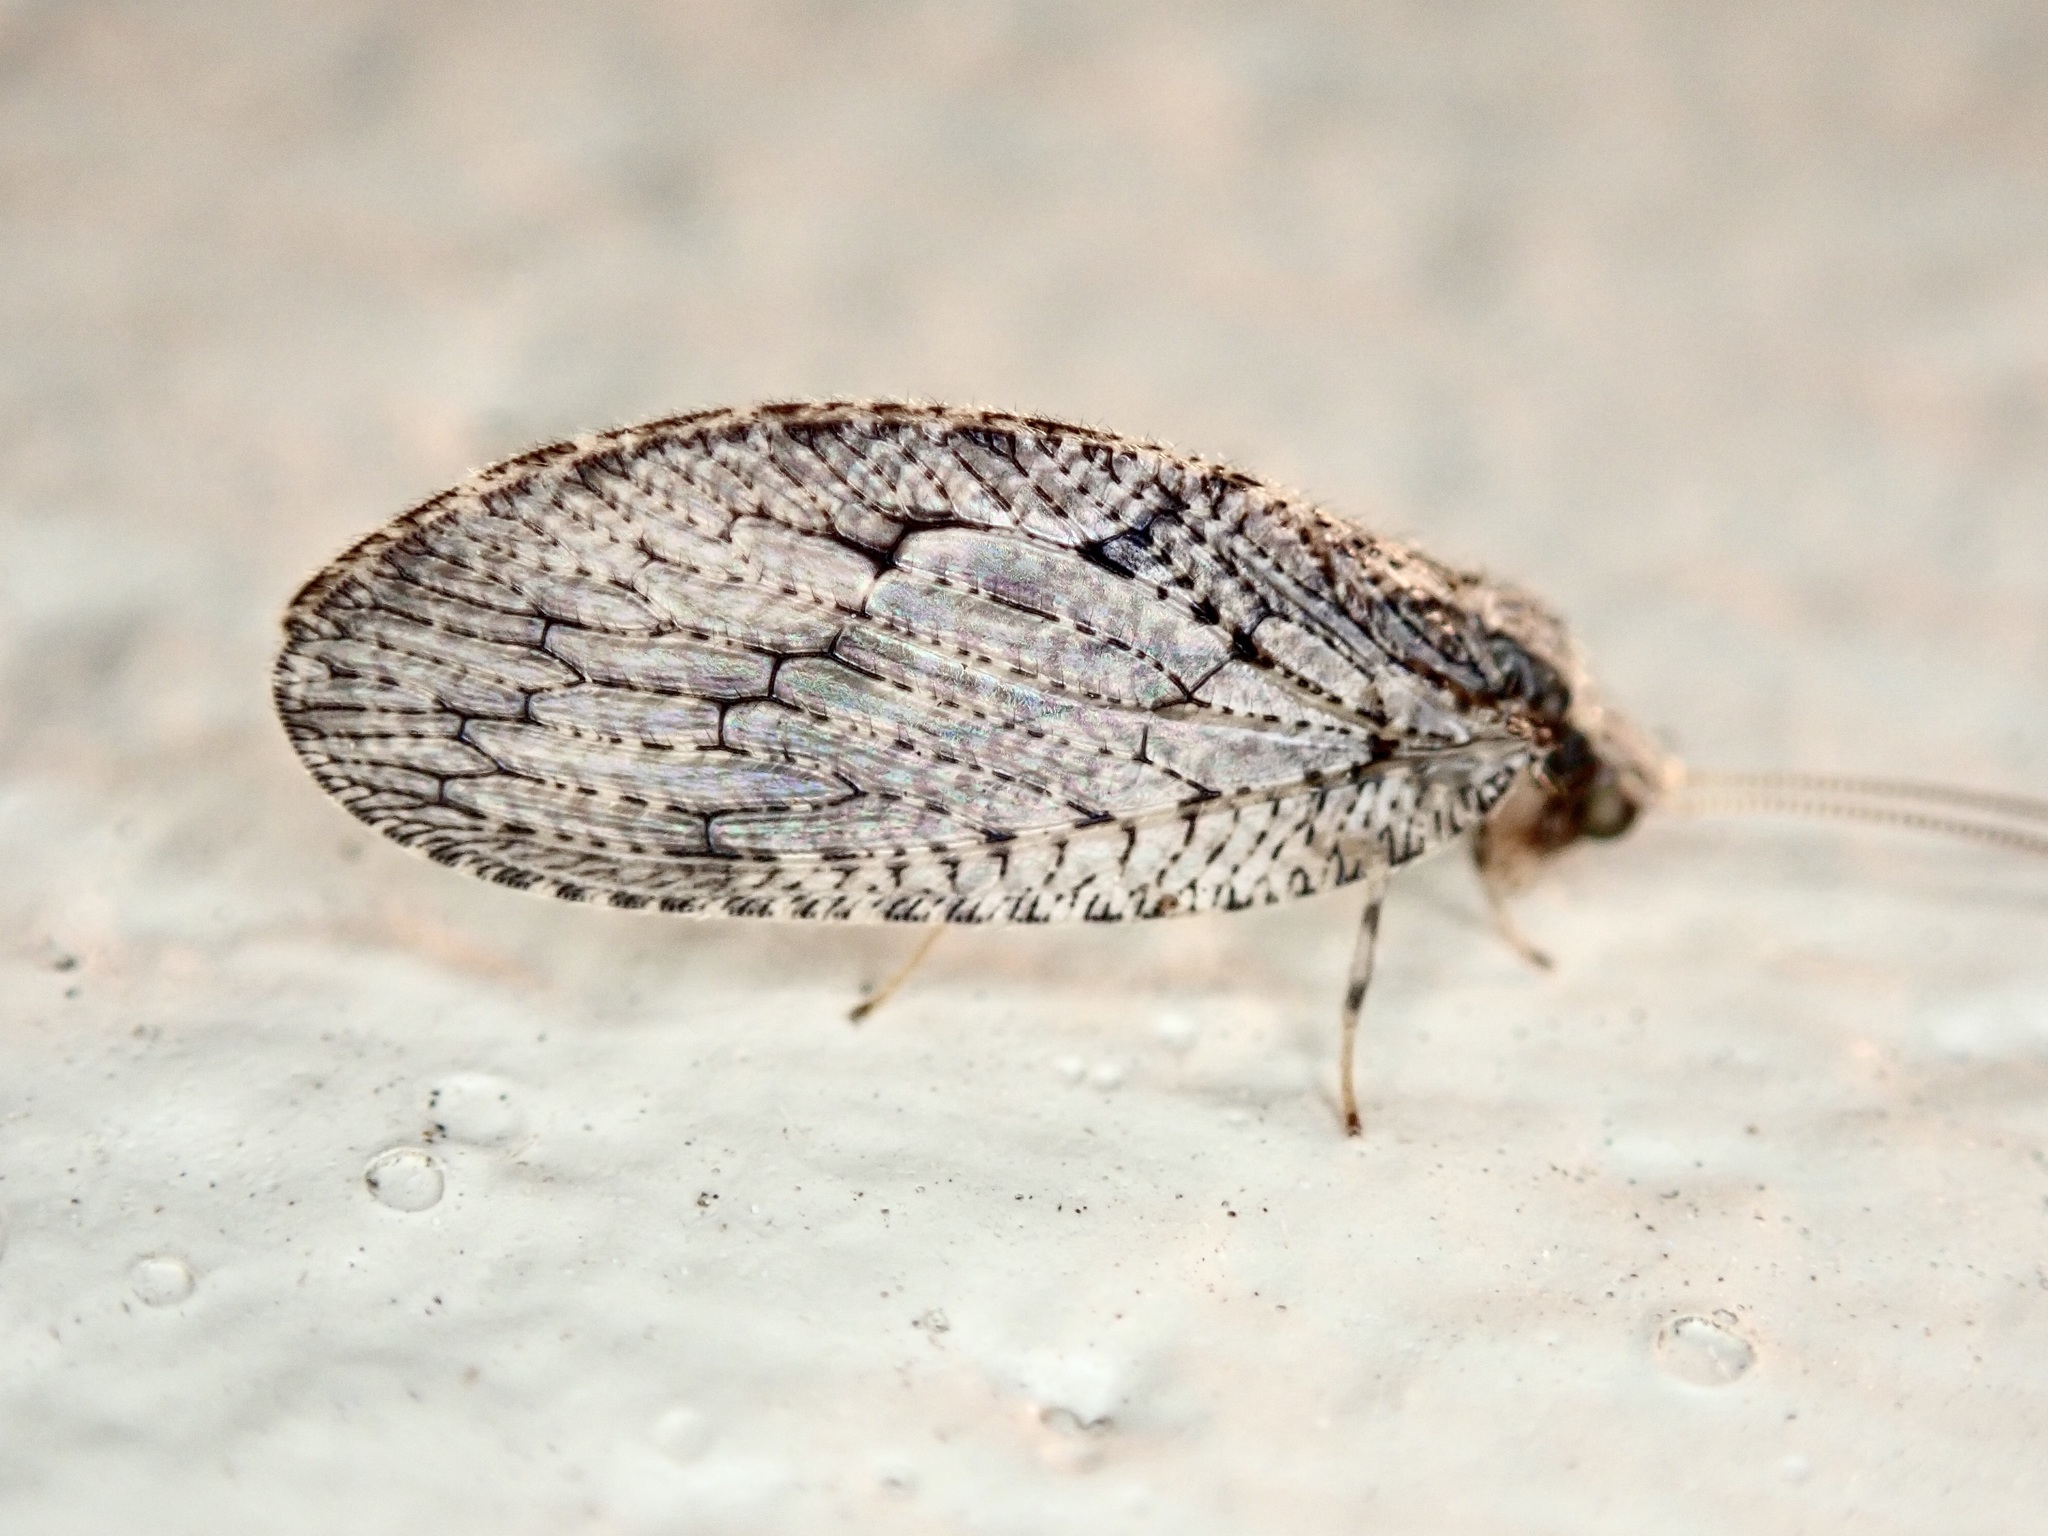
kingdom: Animalia
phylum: Arthropoda
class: Insecta
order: Neuroptera
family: Hemerobiidae
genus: Wesmaelius
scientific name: Wesmaelius subnebulosus
